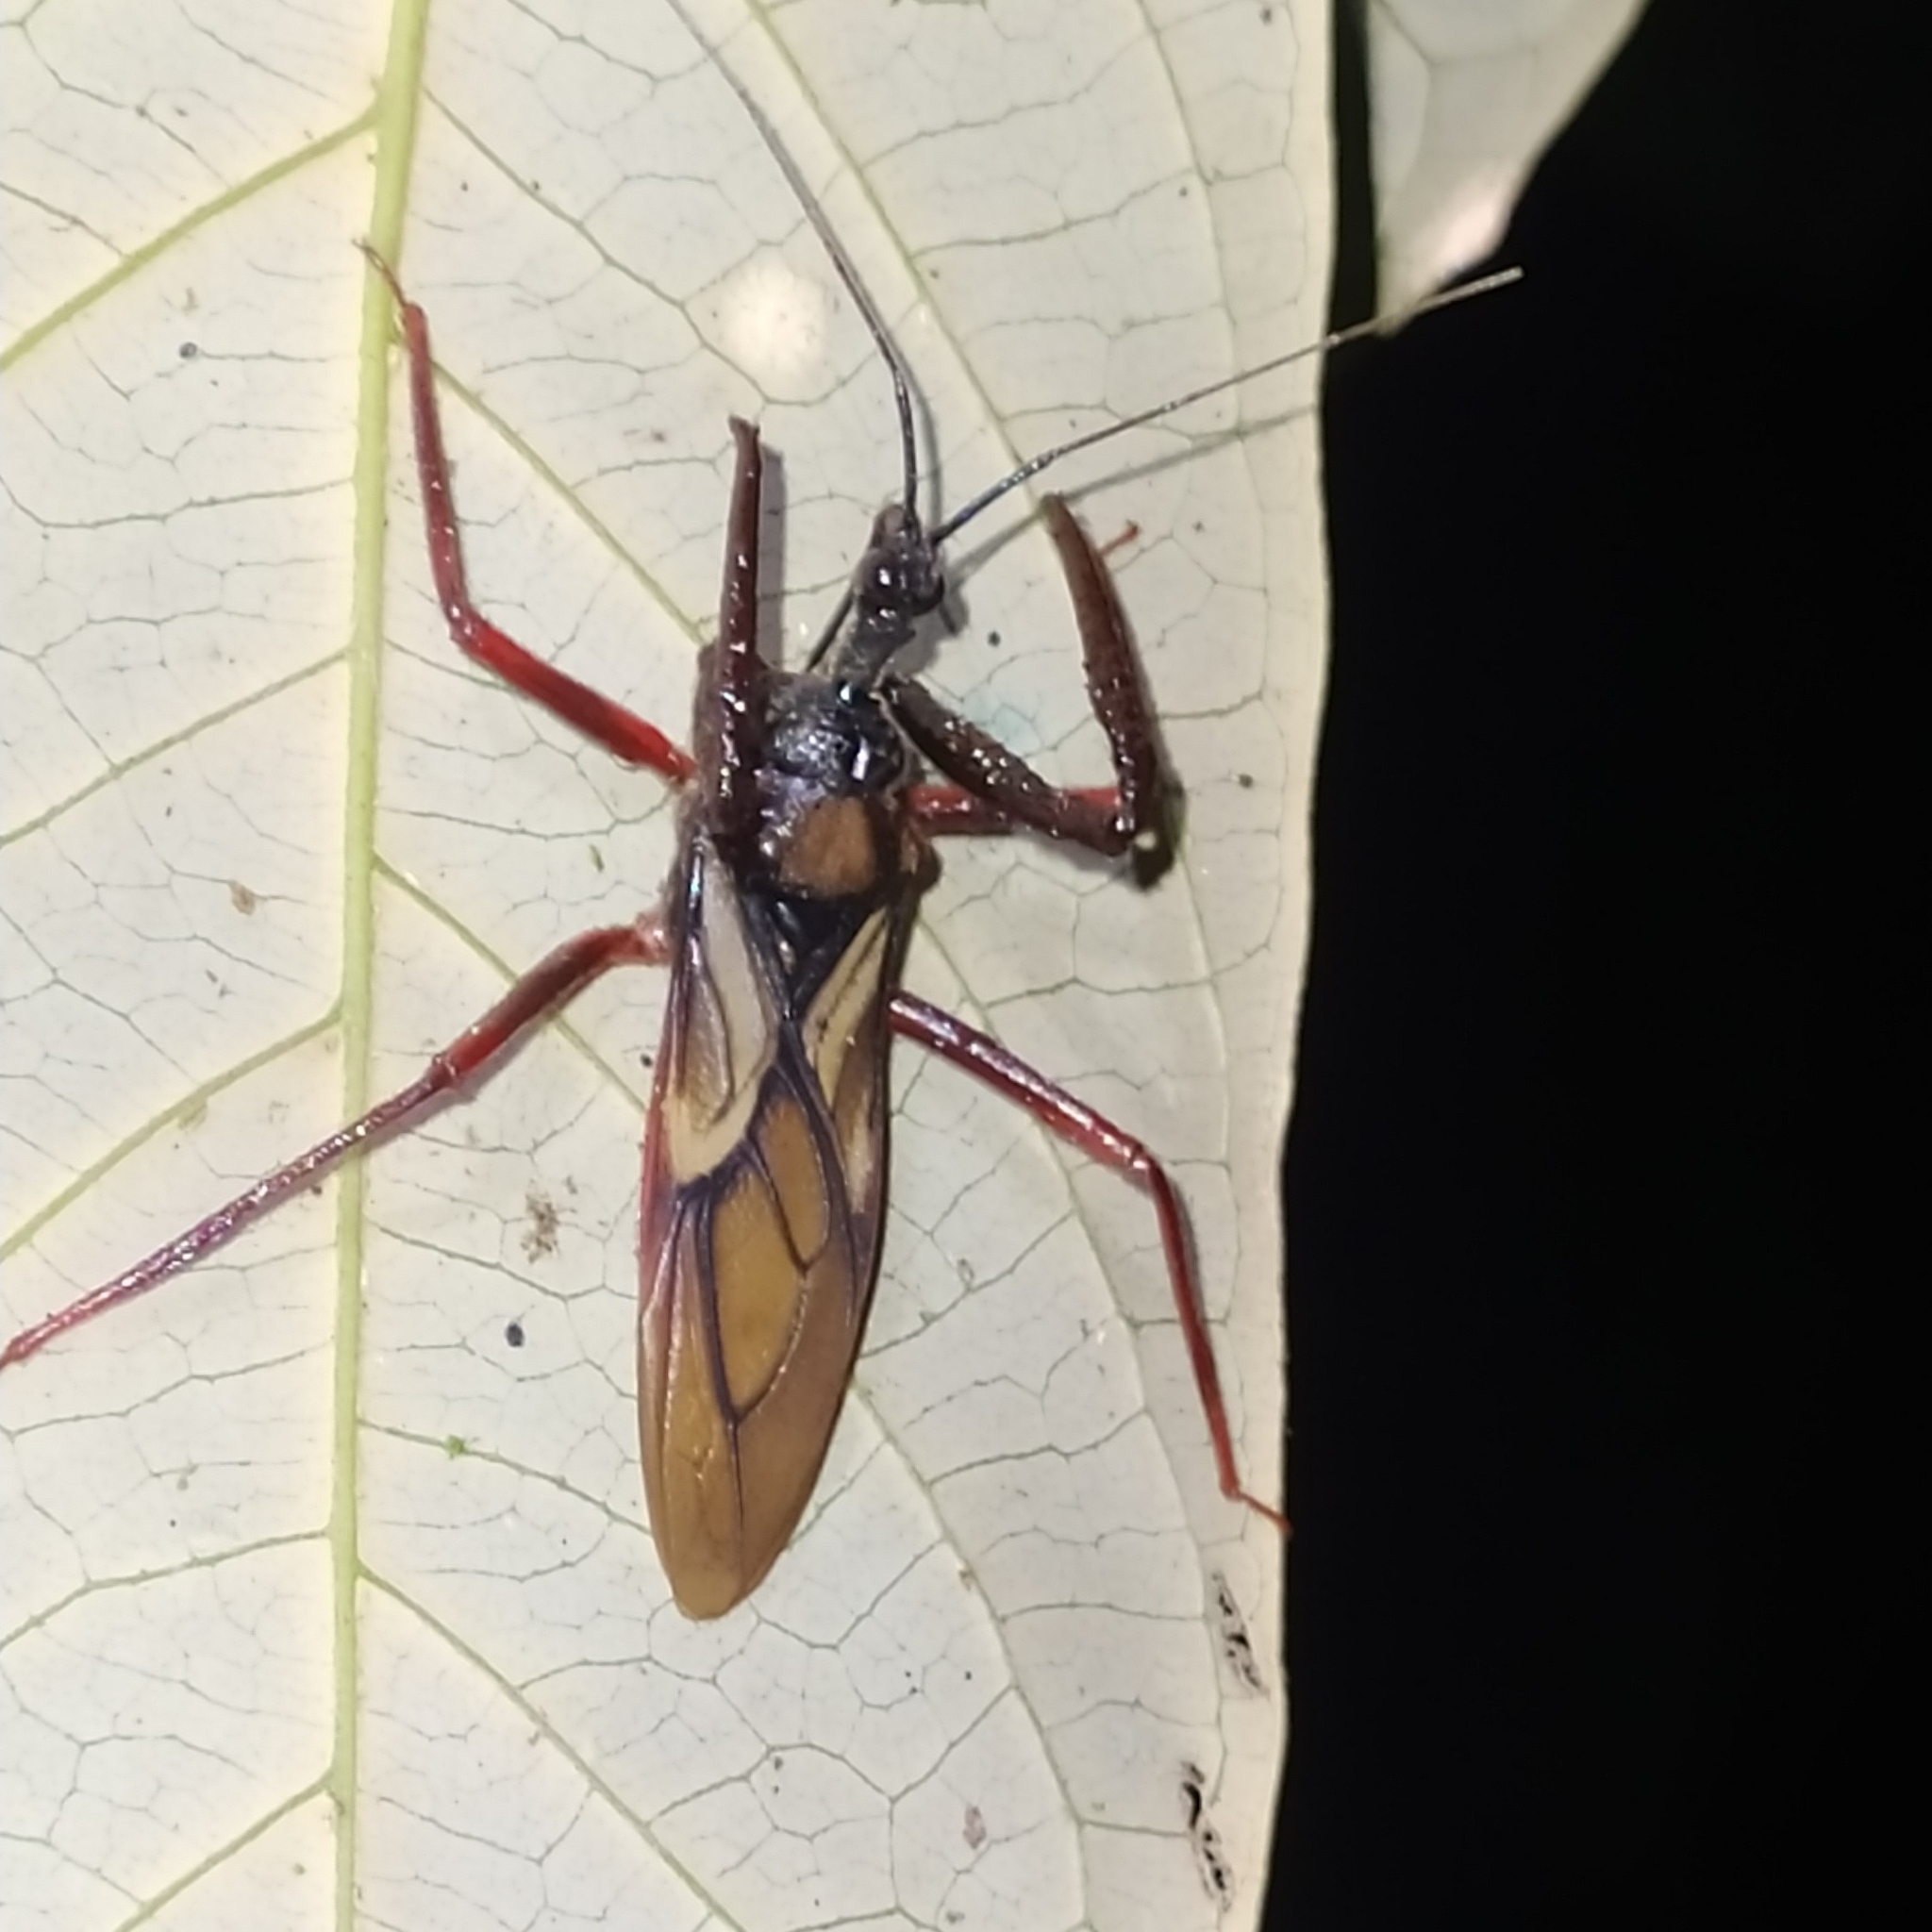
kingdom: Animalia
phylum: Arthropoda
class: Insecta
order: Hemiptera
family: Reduviidae
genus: Manicocoris
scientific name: Manicocoris rufipes
